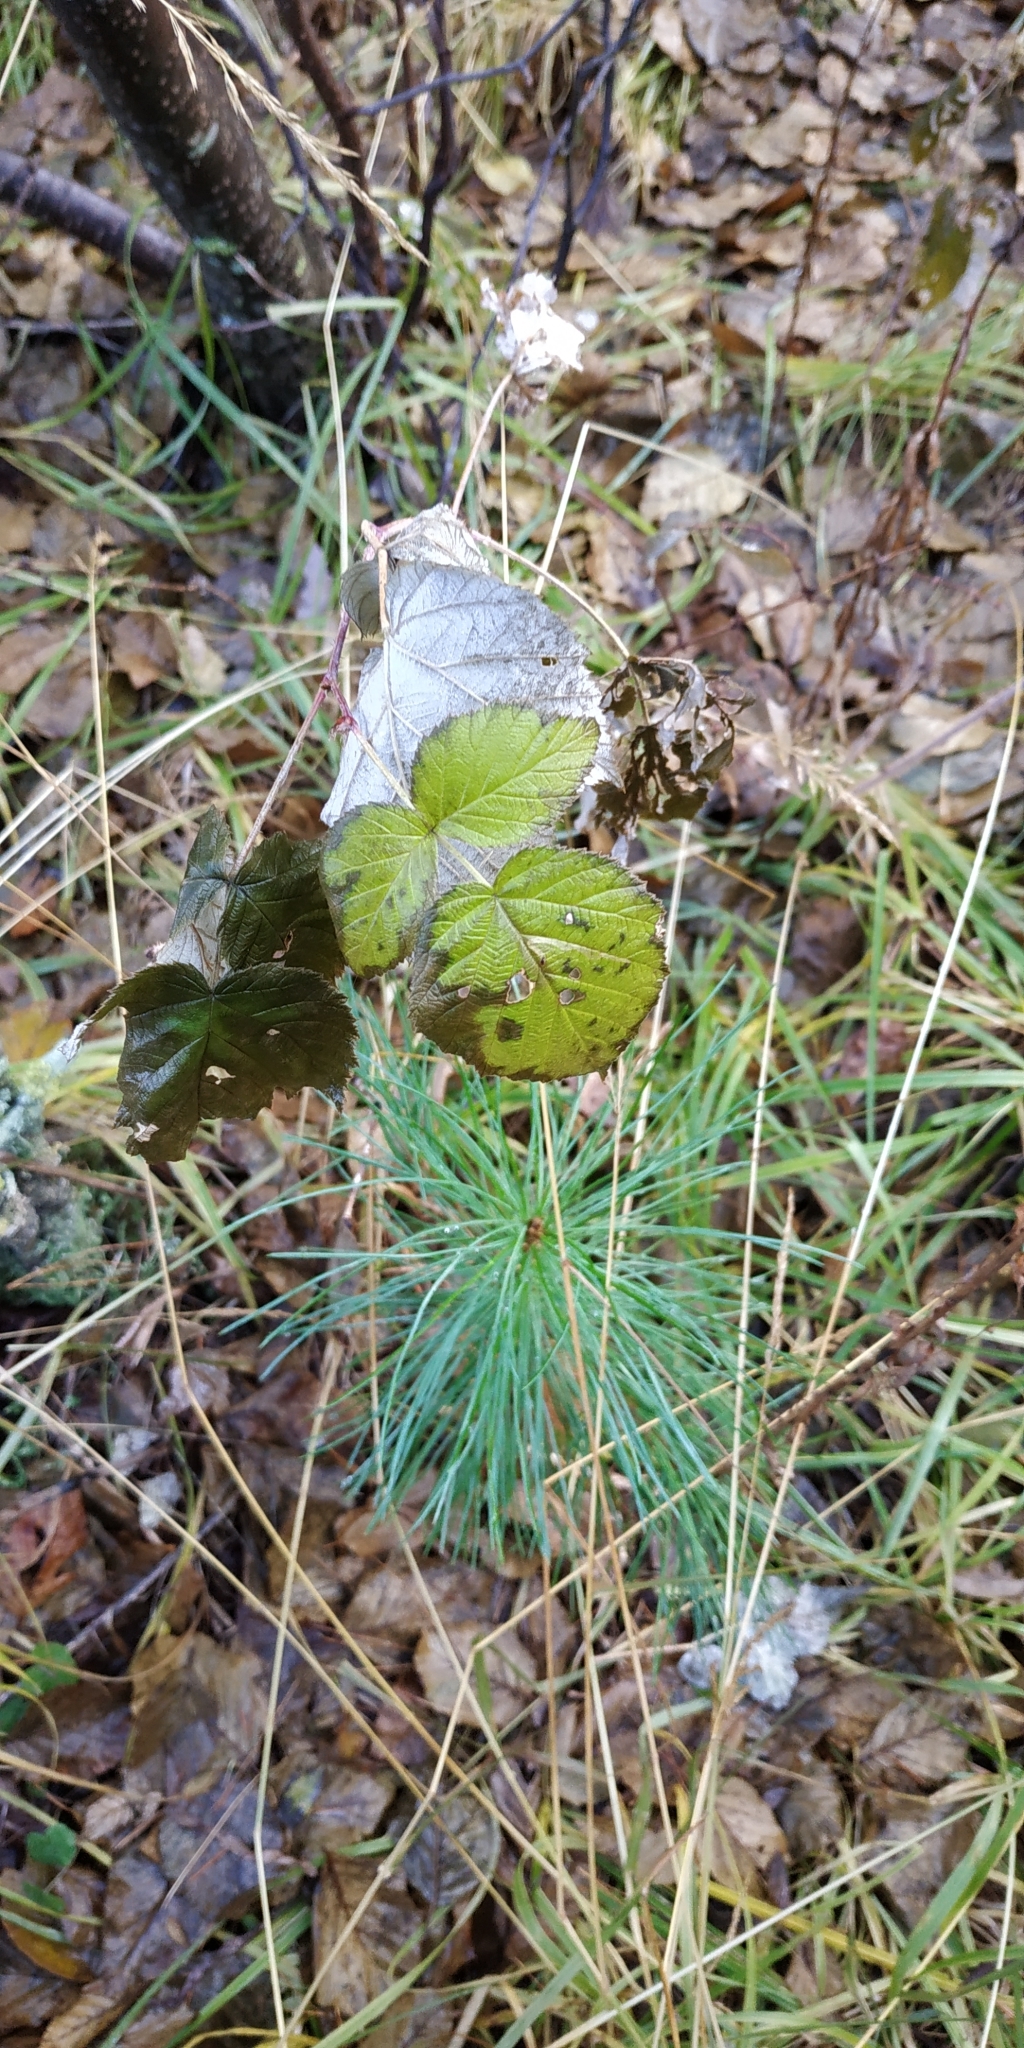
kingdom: Plantae
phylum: Tracheophyta
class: Magnoliopsida
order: Rosales
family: Rosaceae
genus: Rubus
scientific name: Rubus idaeus
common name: Raspberry
